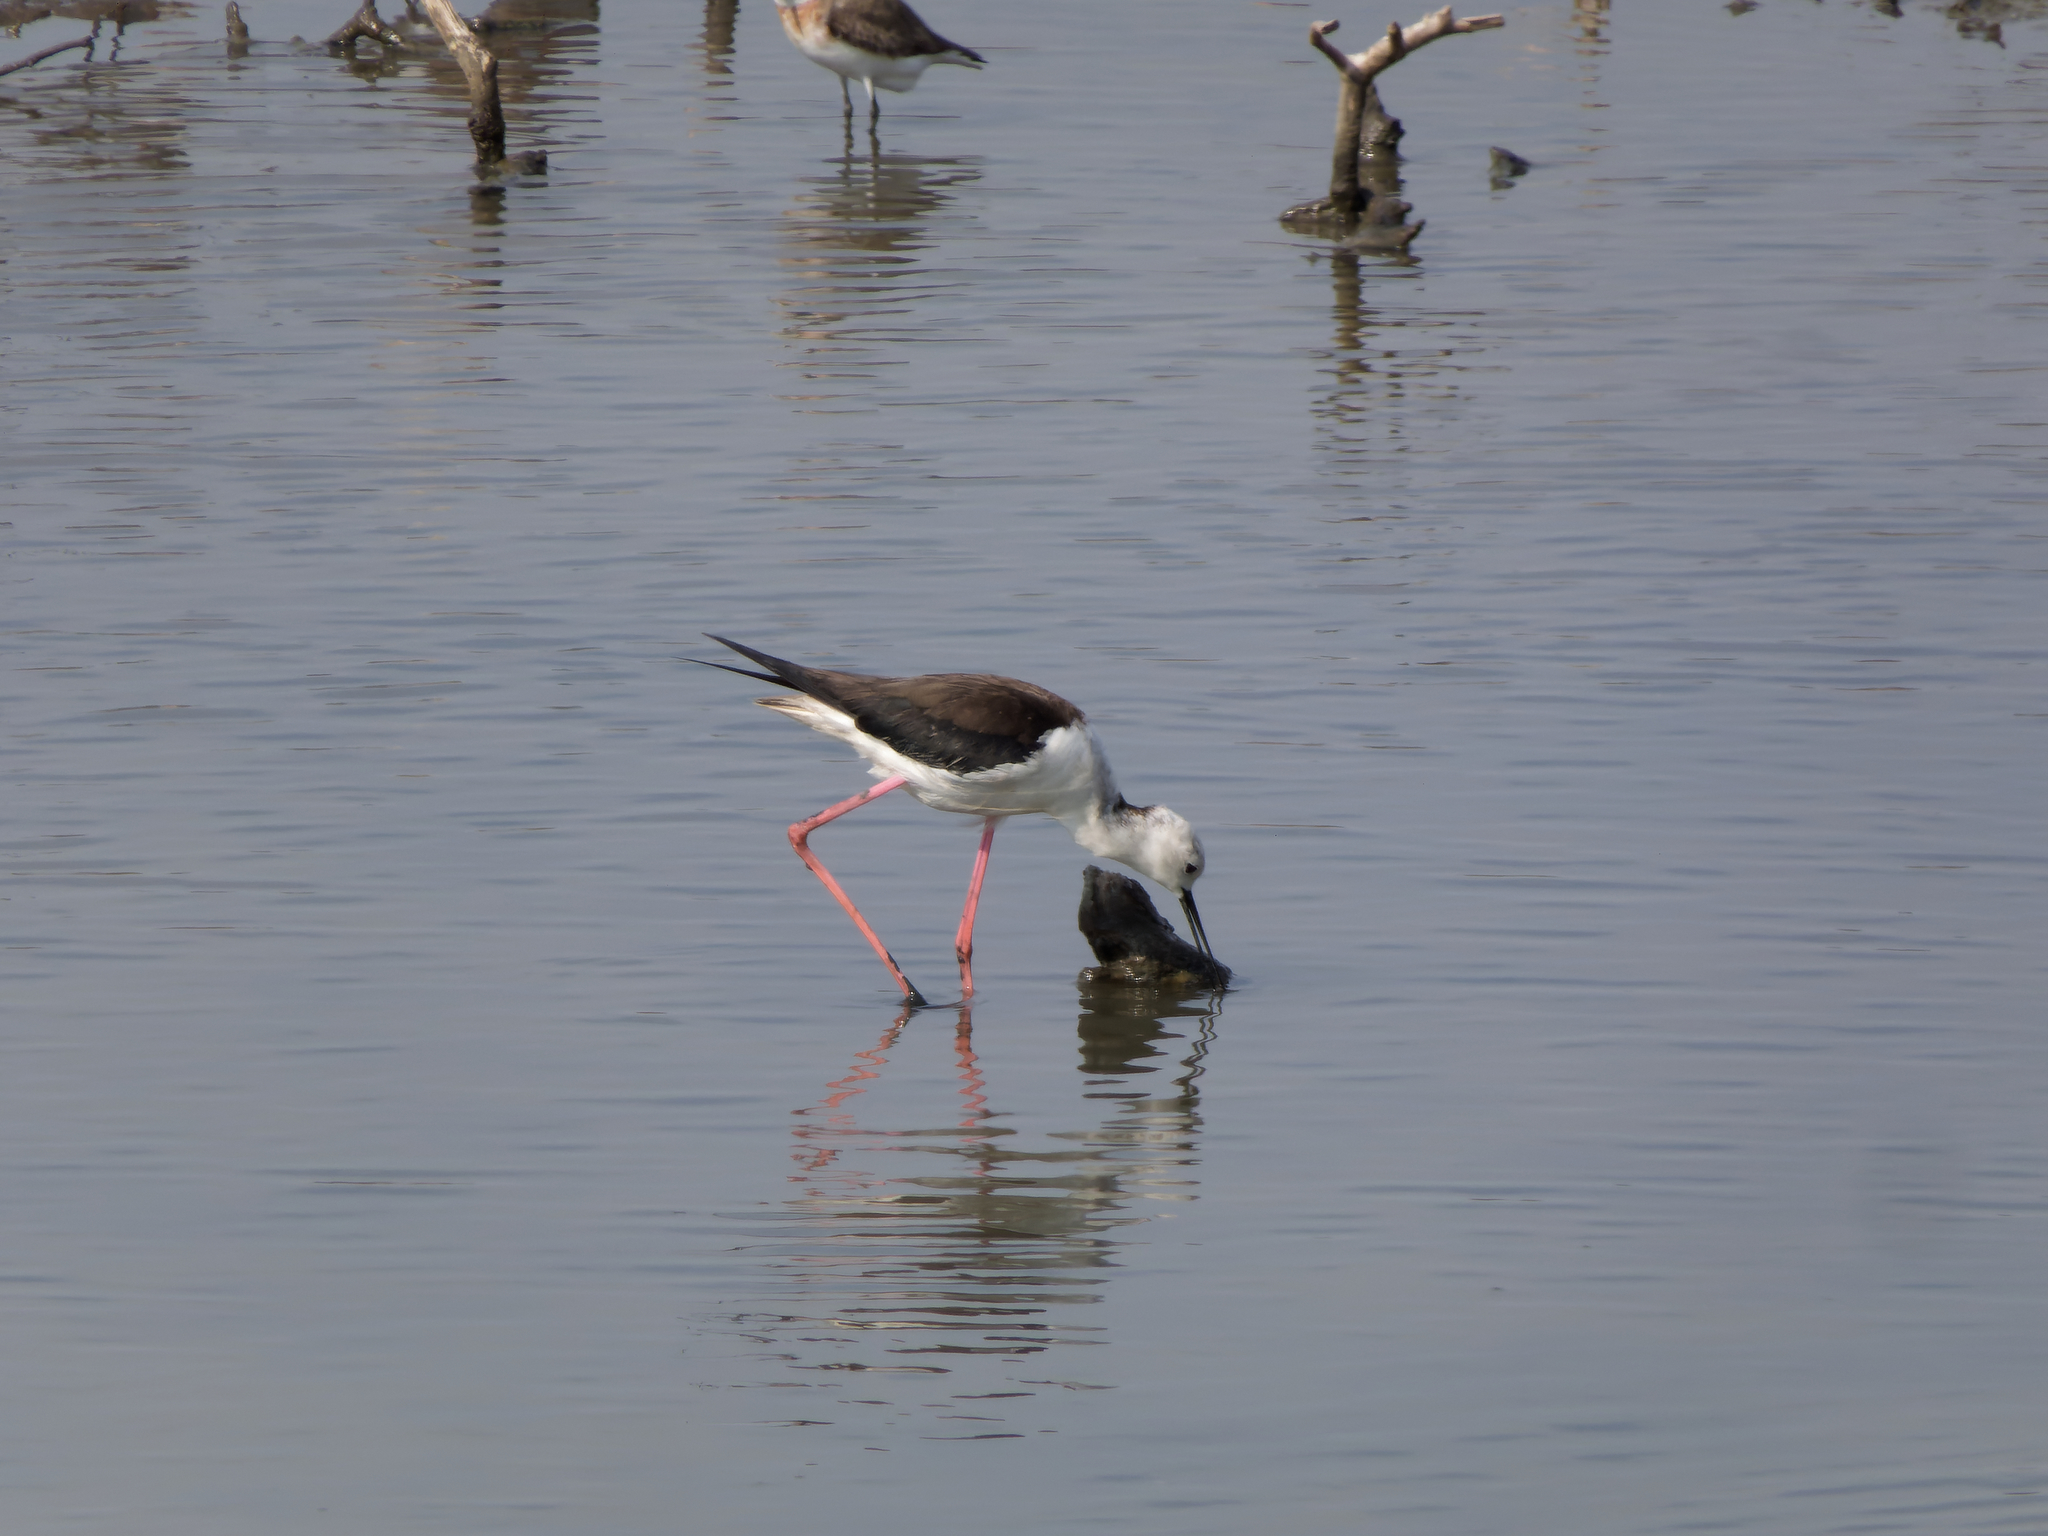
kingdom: Animalia
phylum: Chordata
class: Aves
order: Charadriiformes
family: Recurvirostridae
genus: Himantopus
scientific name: Himantopus himantopus
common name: Black-winged stilt
